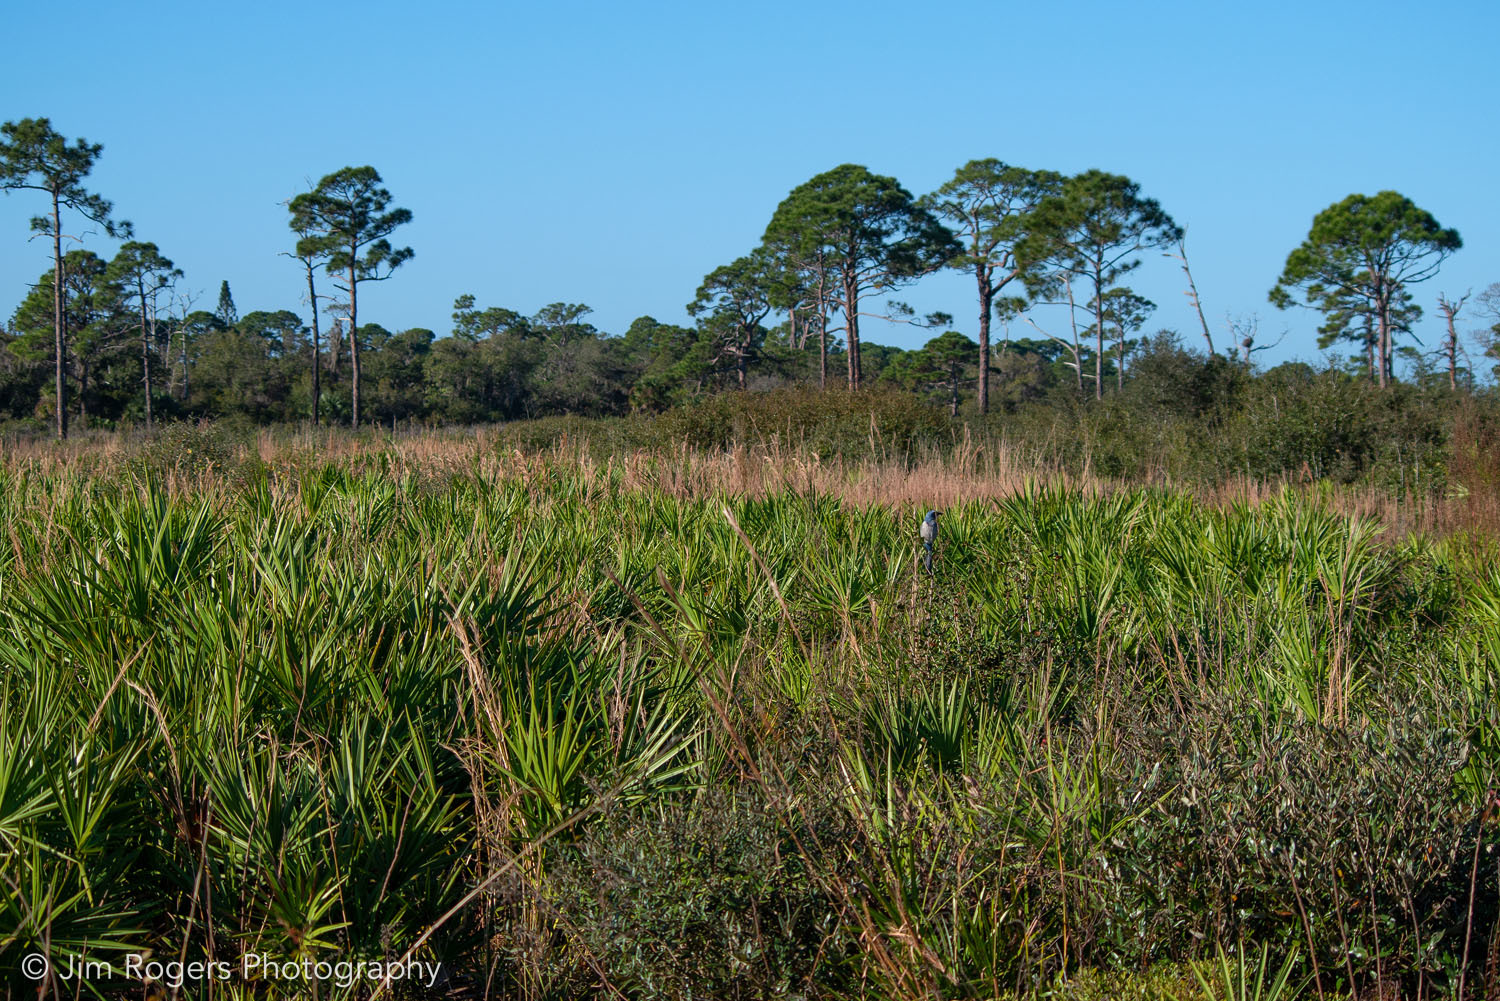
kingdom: Animalia
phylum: Chordata
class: Aves
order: Passeriformes
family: Corvidae
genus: Aphelocoma
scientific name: Aphelocoma coerulescens
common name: Florida scrub jay
